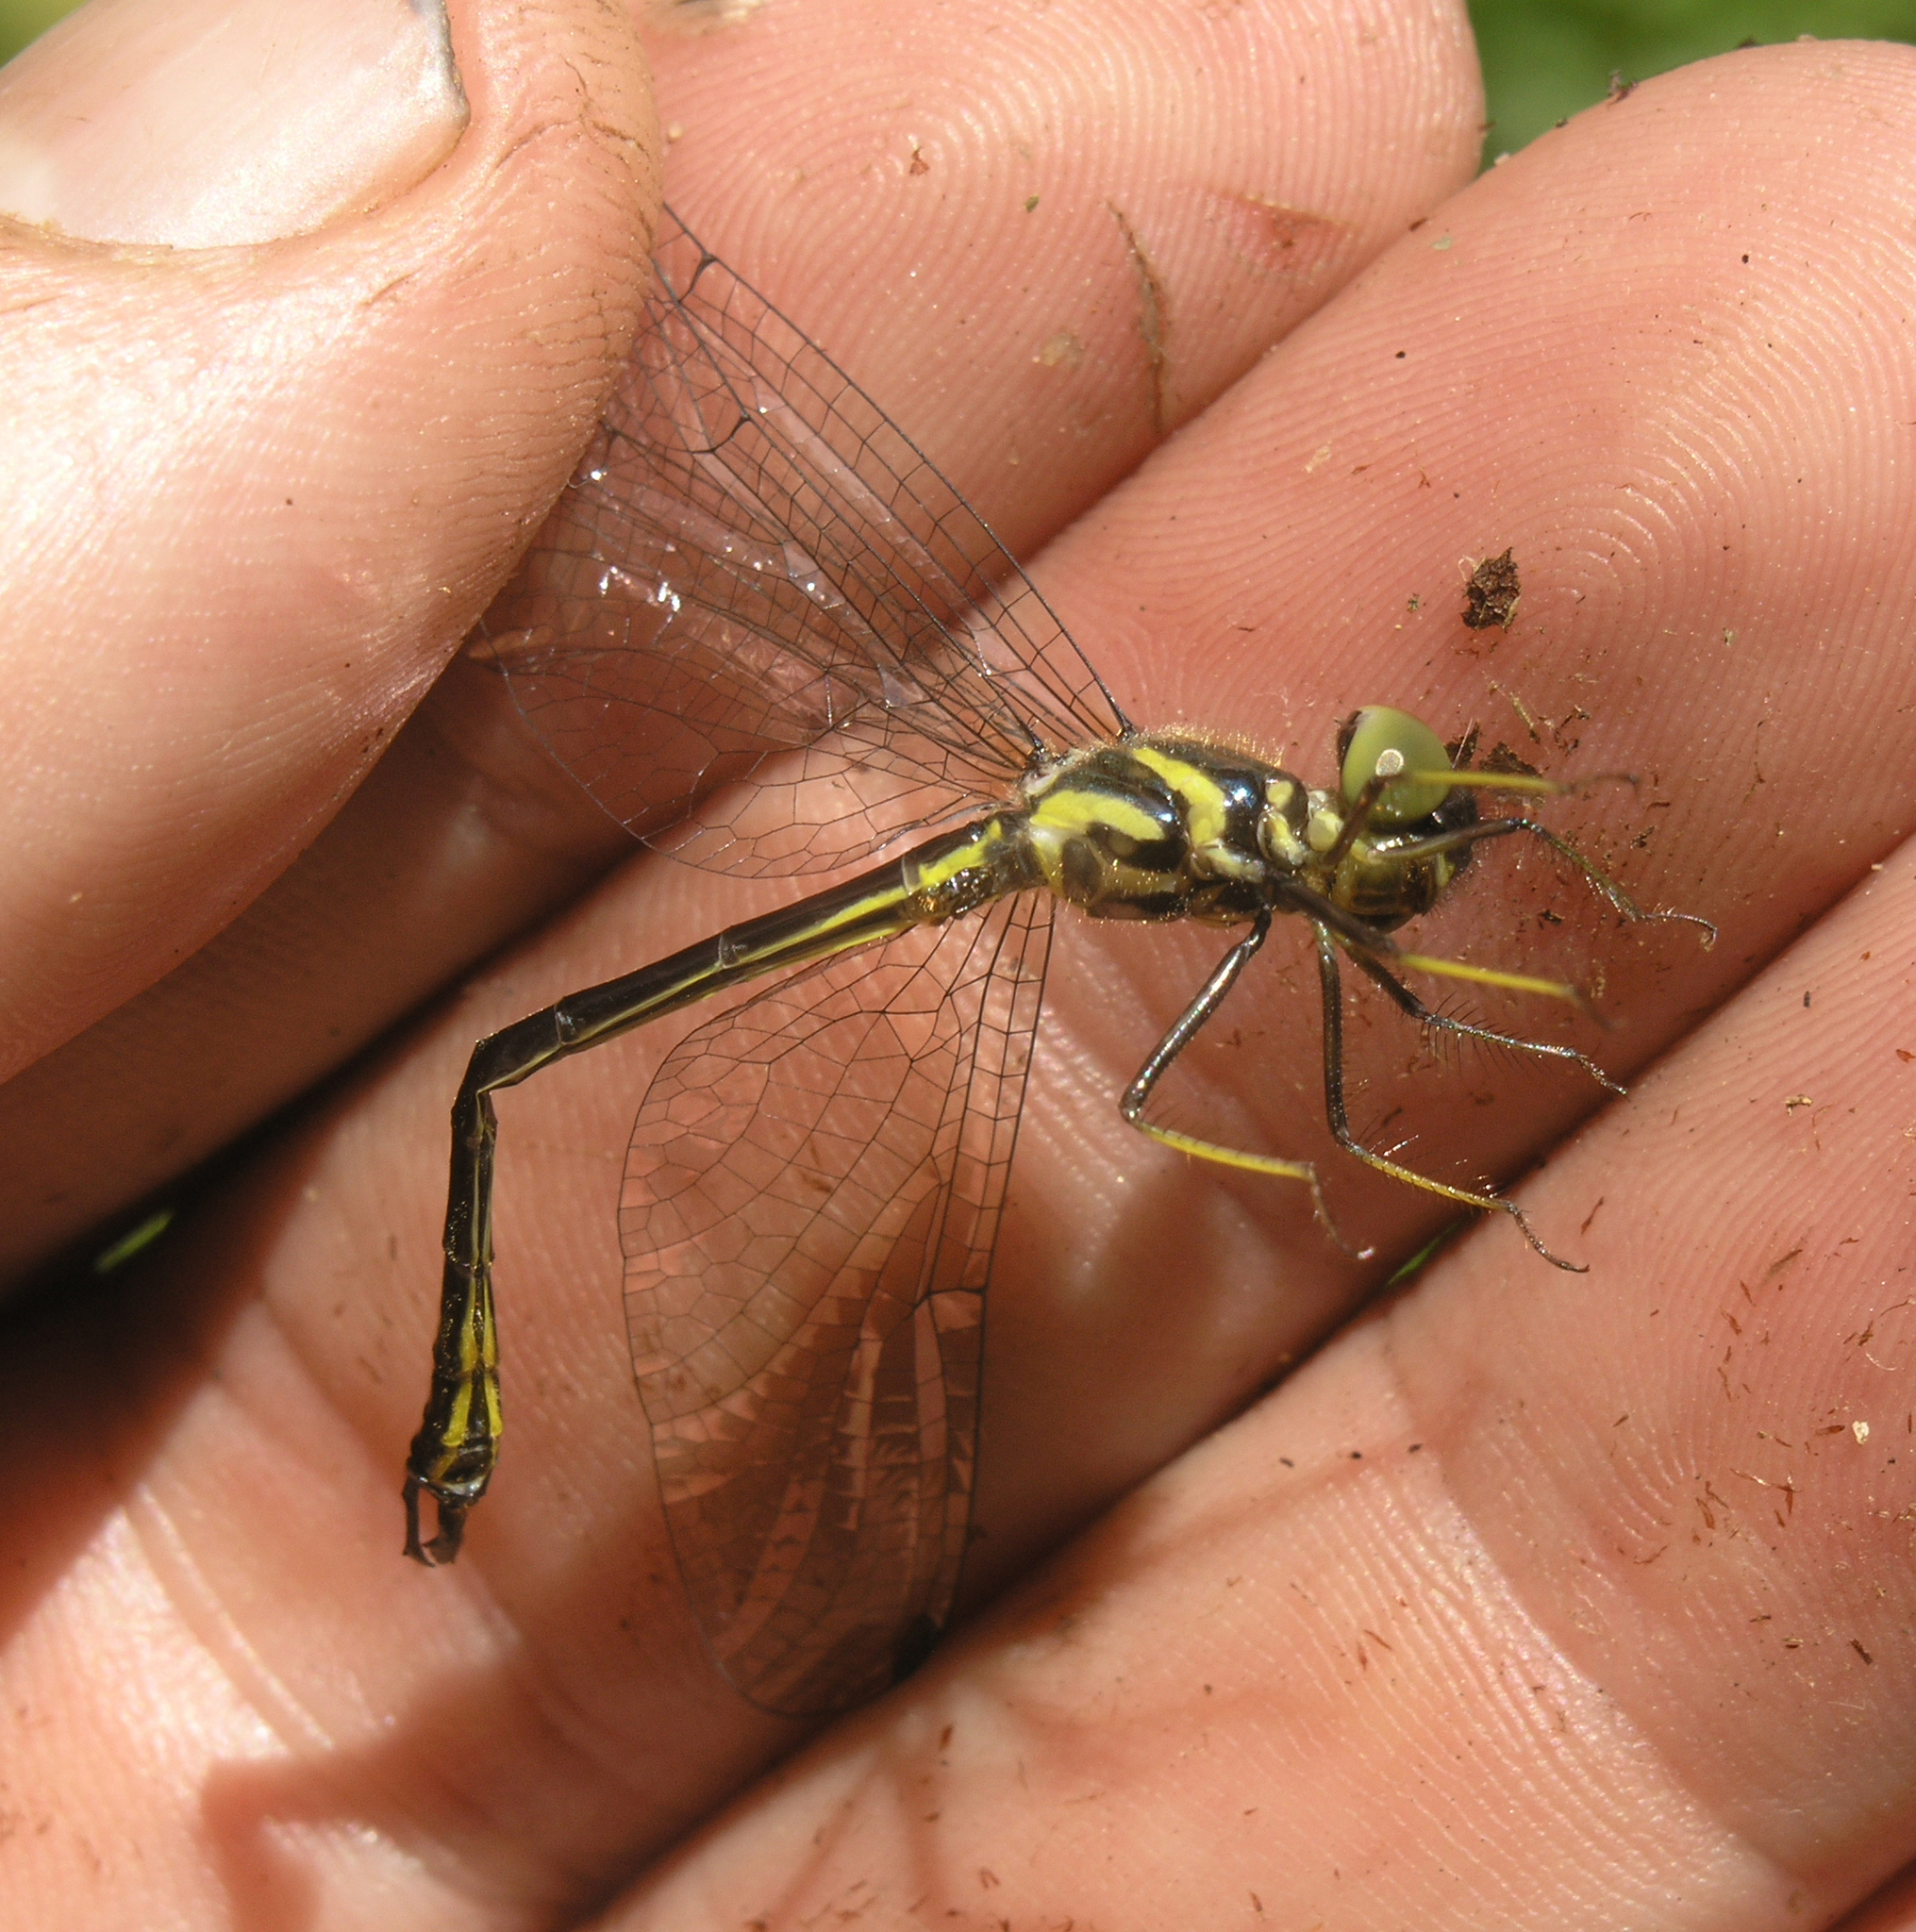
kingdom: Animalia
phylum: Arthropoda
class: Insecta
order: Odonata
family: Synthemistidae
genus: Idionyx
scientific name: Idionyx thailandicus
